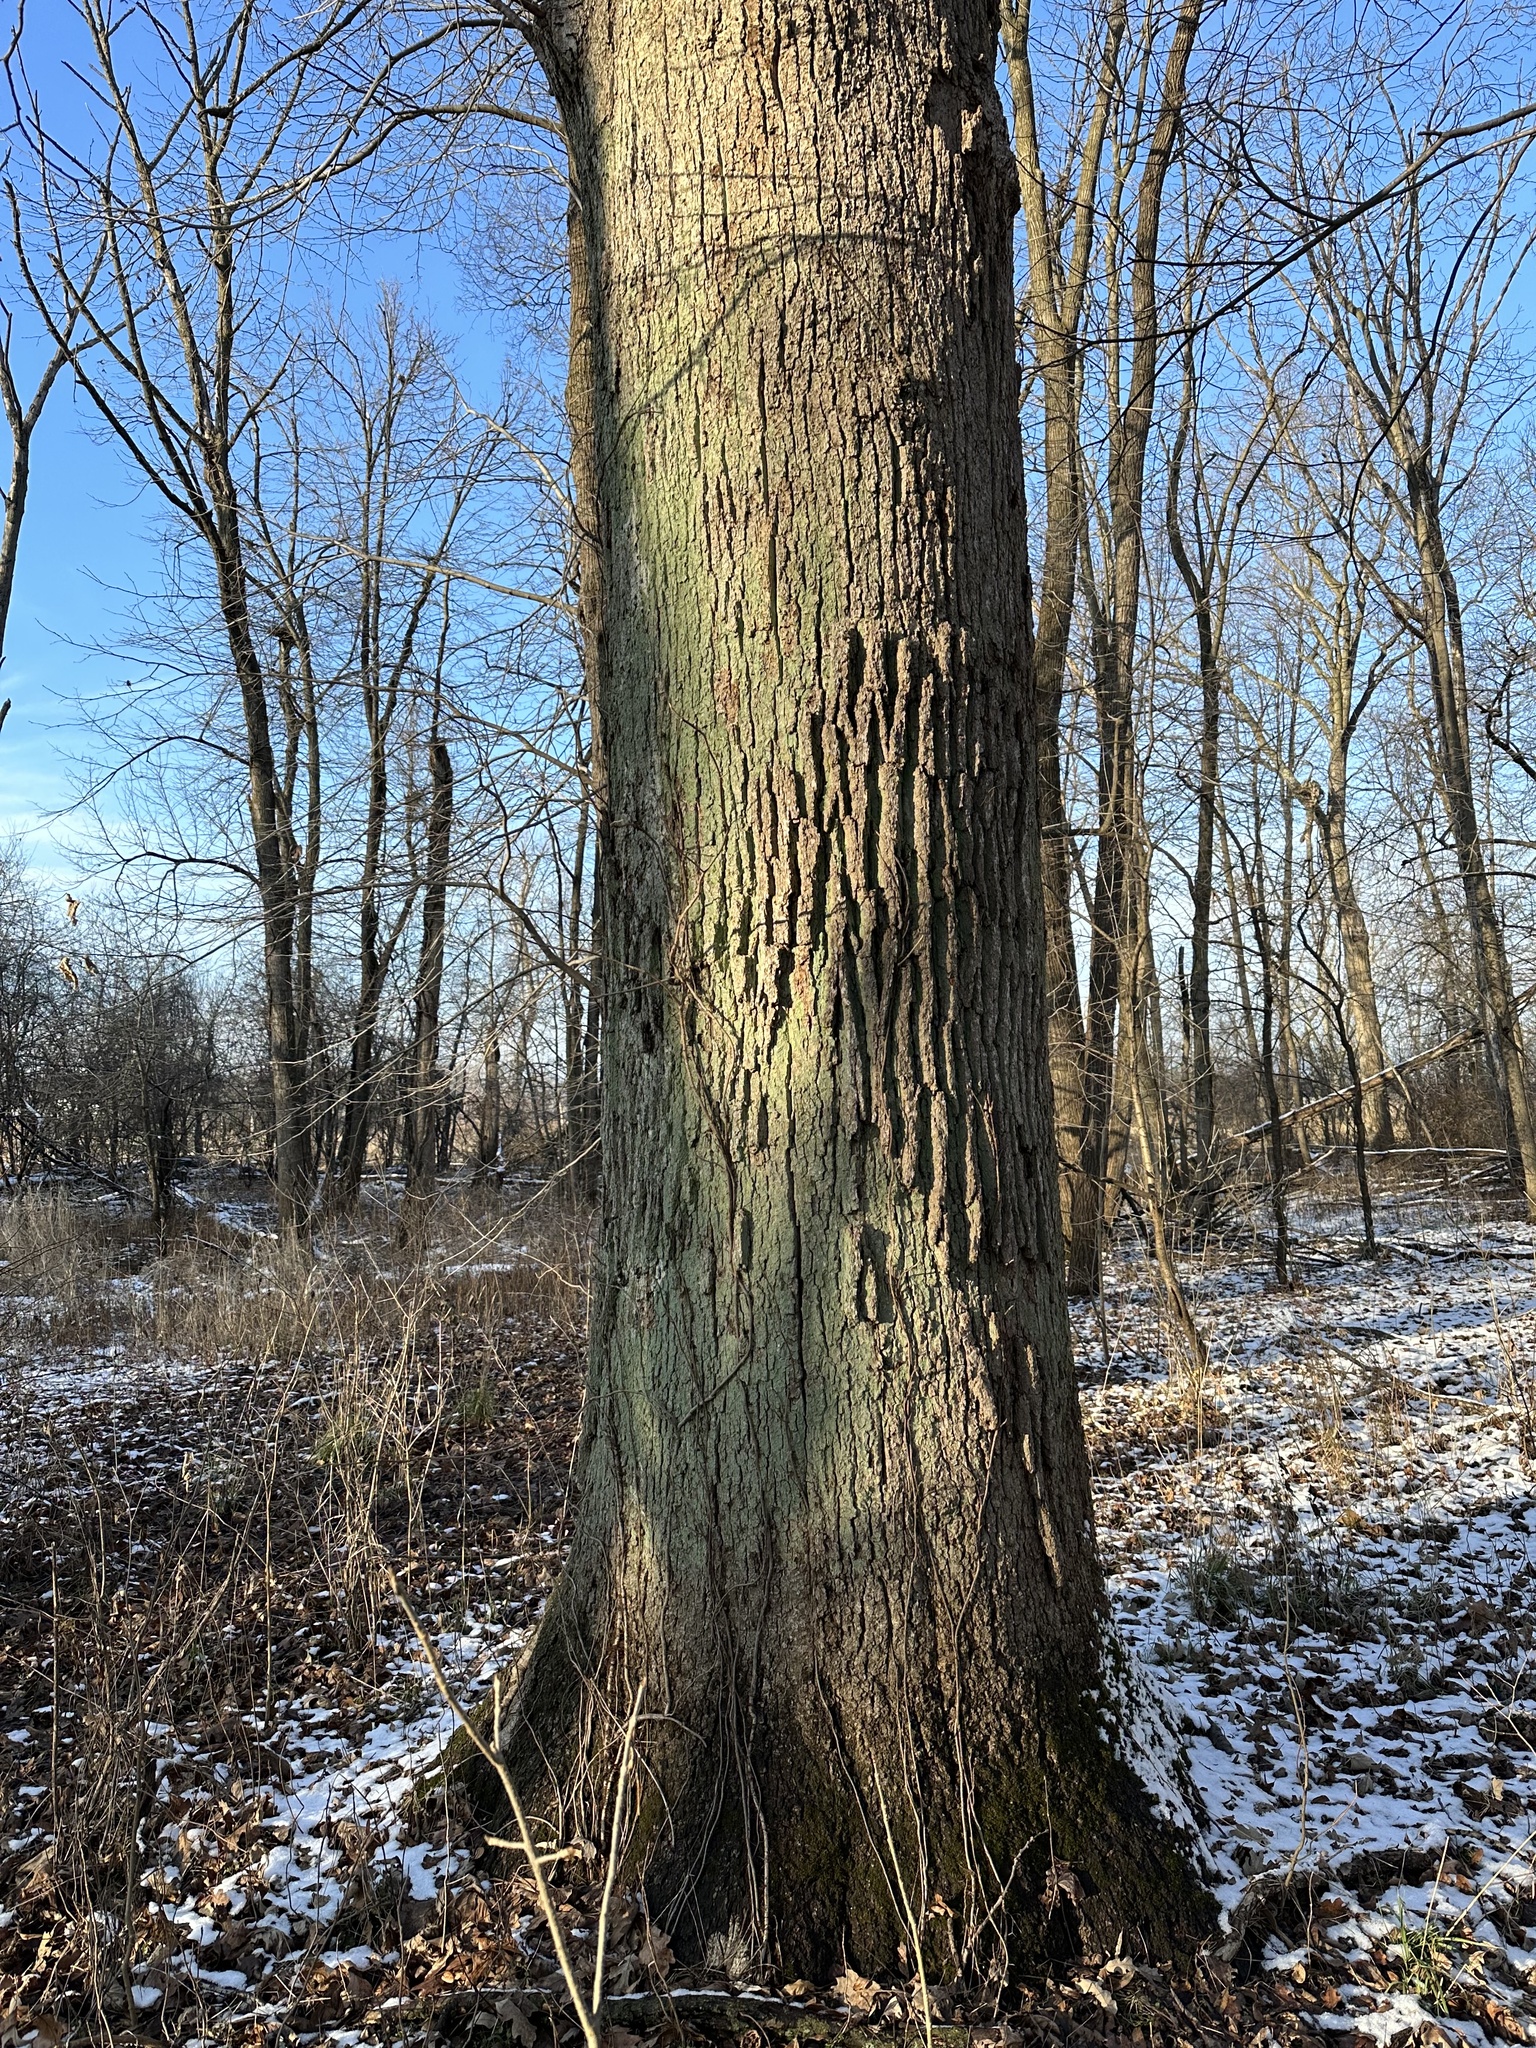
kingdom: Fungi
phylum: Basidiomycota
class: Agaricomycetes
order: Russulales
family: Stereaceae
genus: Acanthophysium
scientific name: Acanthophysium oakesii
